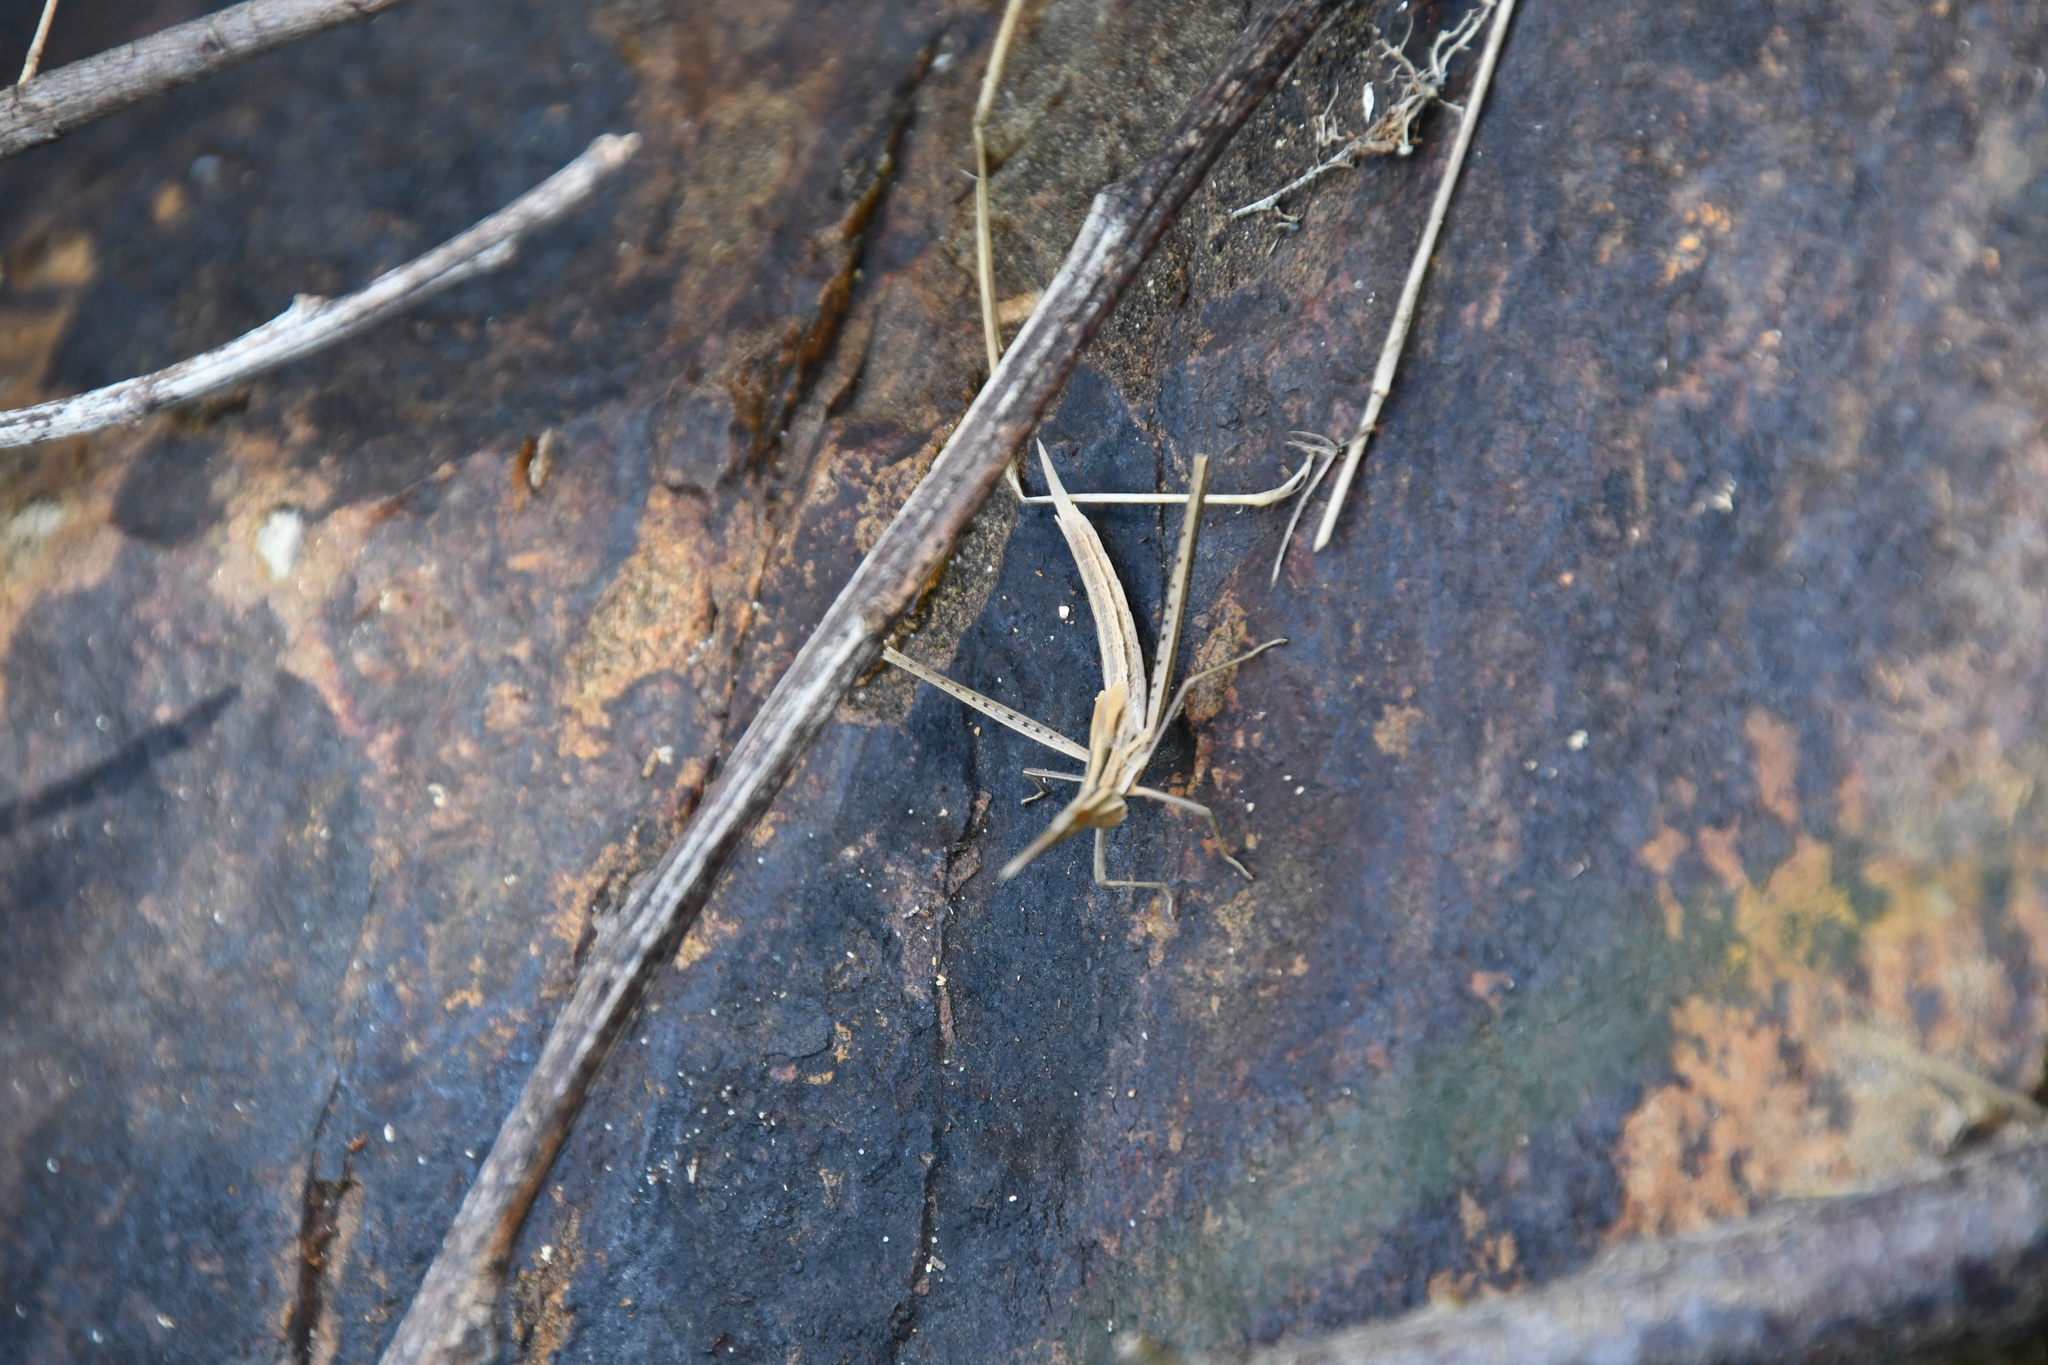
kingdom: Animalia
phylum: Arthropoda
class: Insecta
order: Orthoptera
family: Acrididae
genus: Acrida
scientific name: Acrida conica
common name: Giant green slantface
